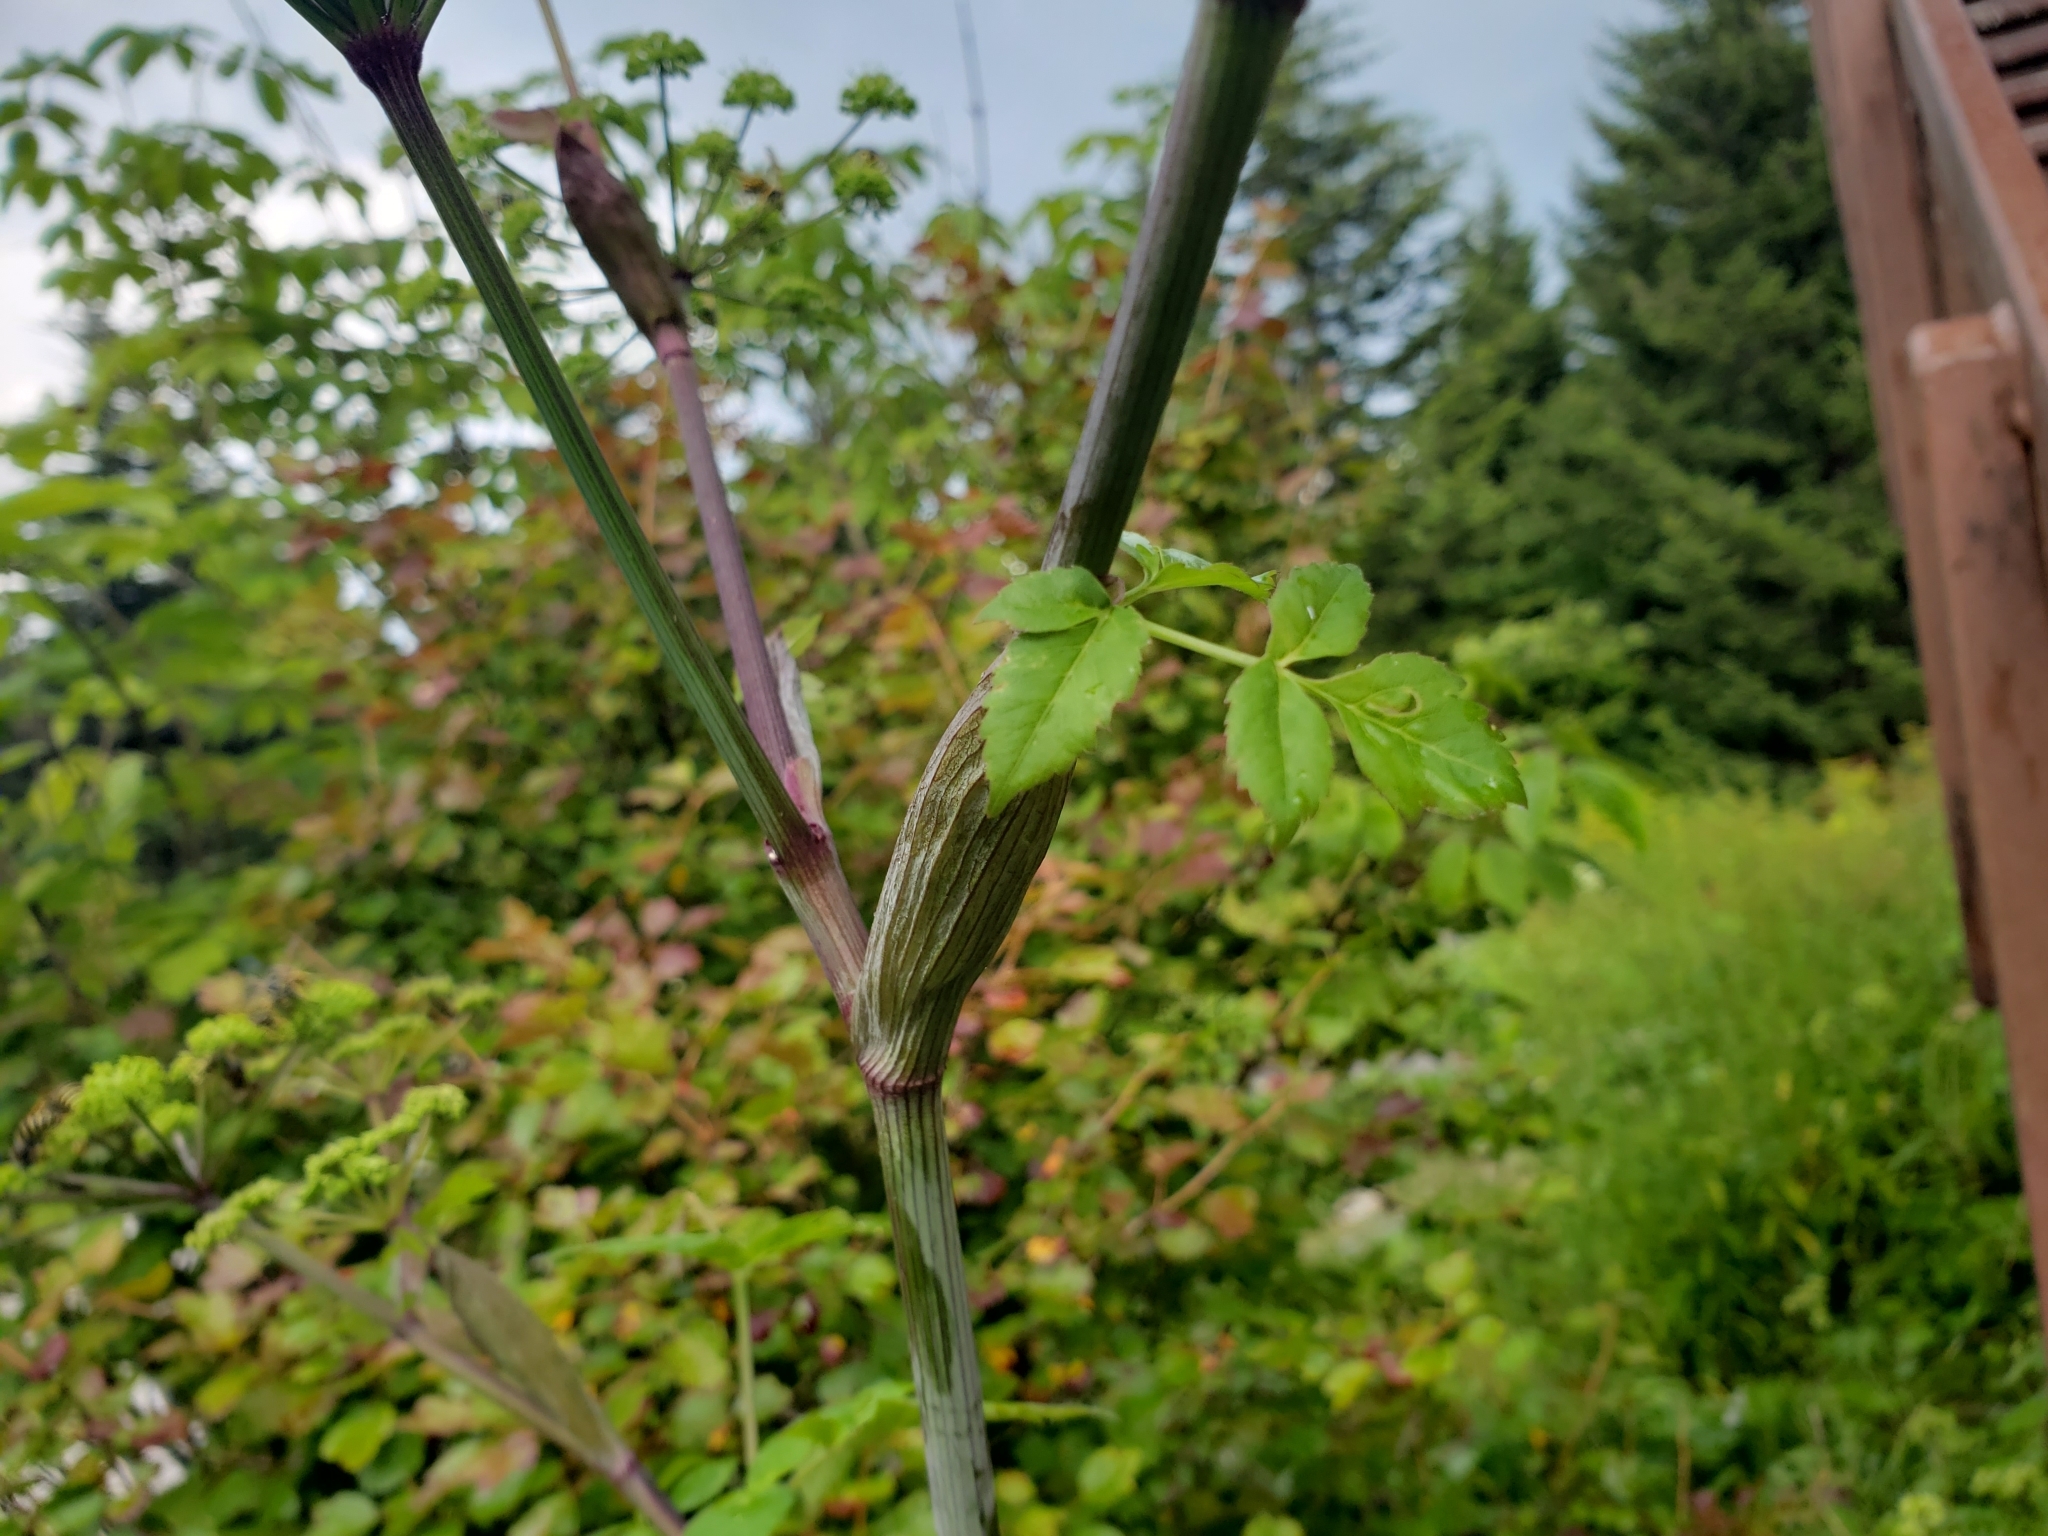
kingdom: Plantae
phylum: Tracheophyta
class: Magnoliopsida
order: Apiales
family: Apiaceae
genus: Angelica
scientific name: Angelica triquinata
